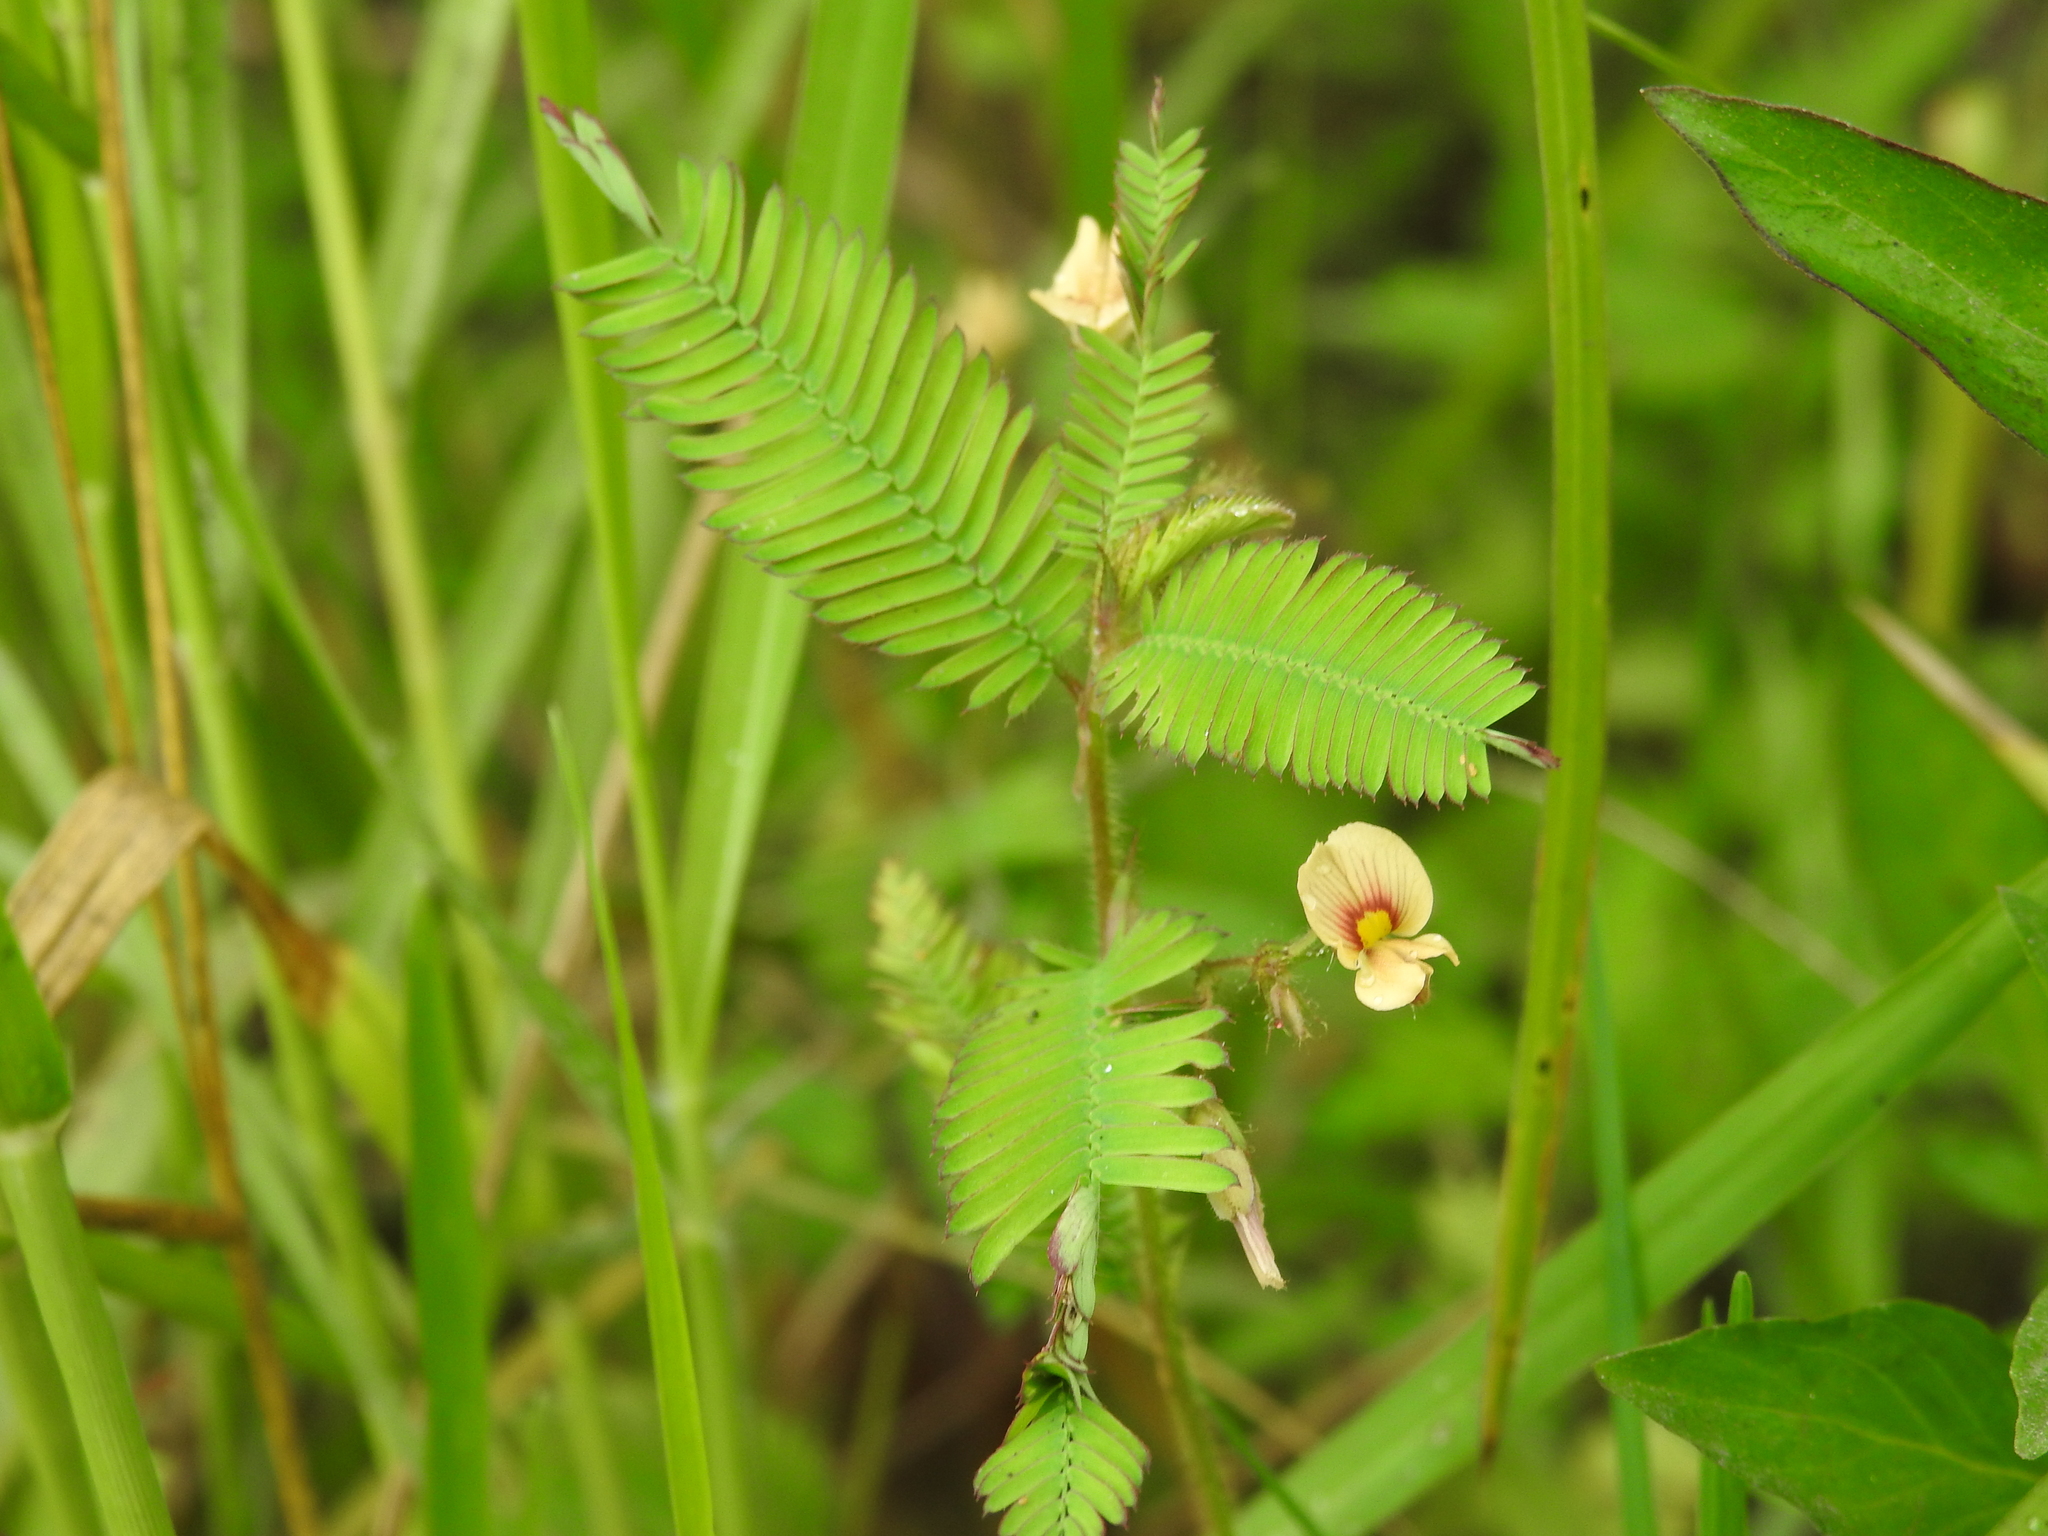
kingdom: Plantae
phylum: Tracheophyta
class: Magnoliopsida
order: Fabales
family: Fabaceae
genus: Aeschynomene
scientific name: Aeschynomene americana
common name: Joint-vetch
